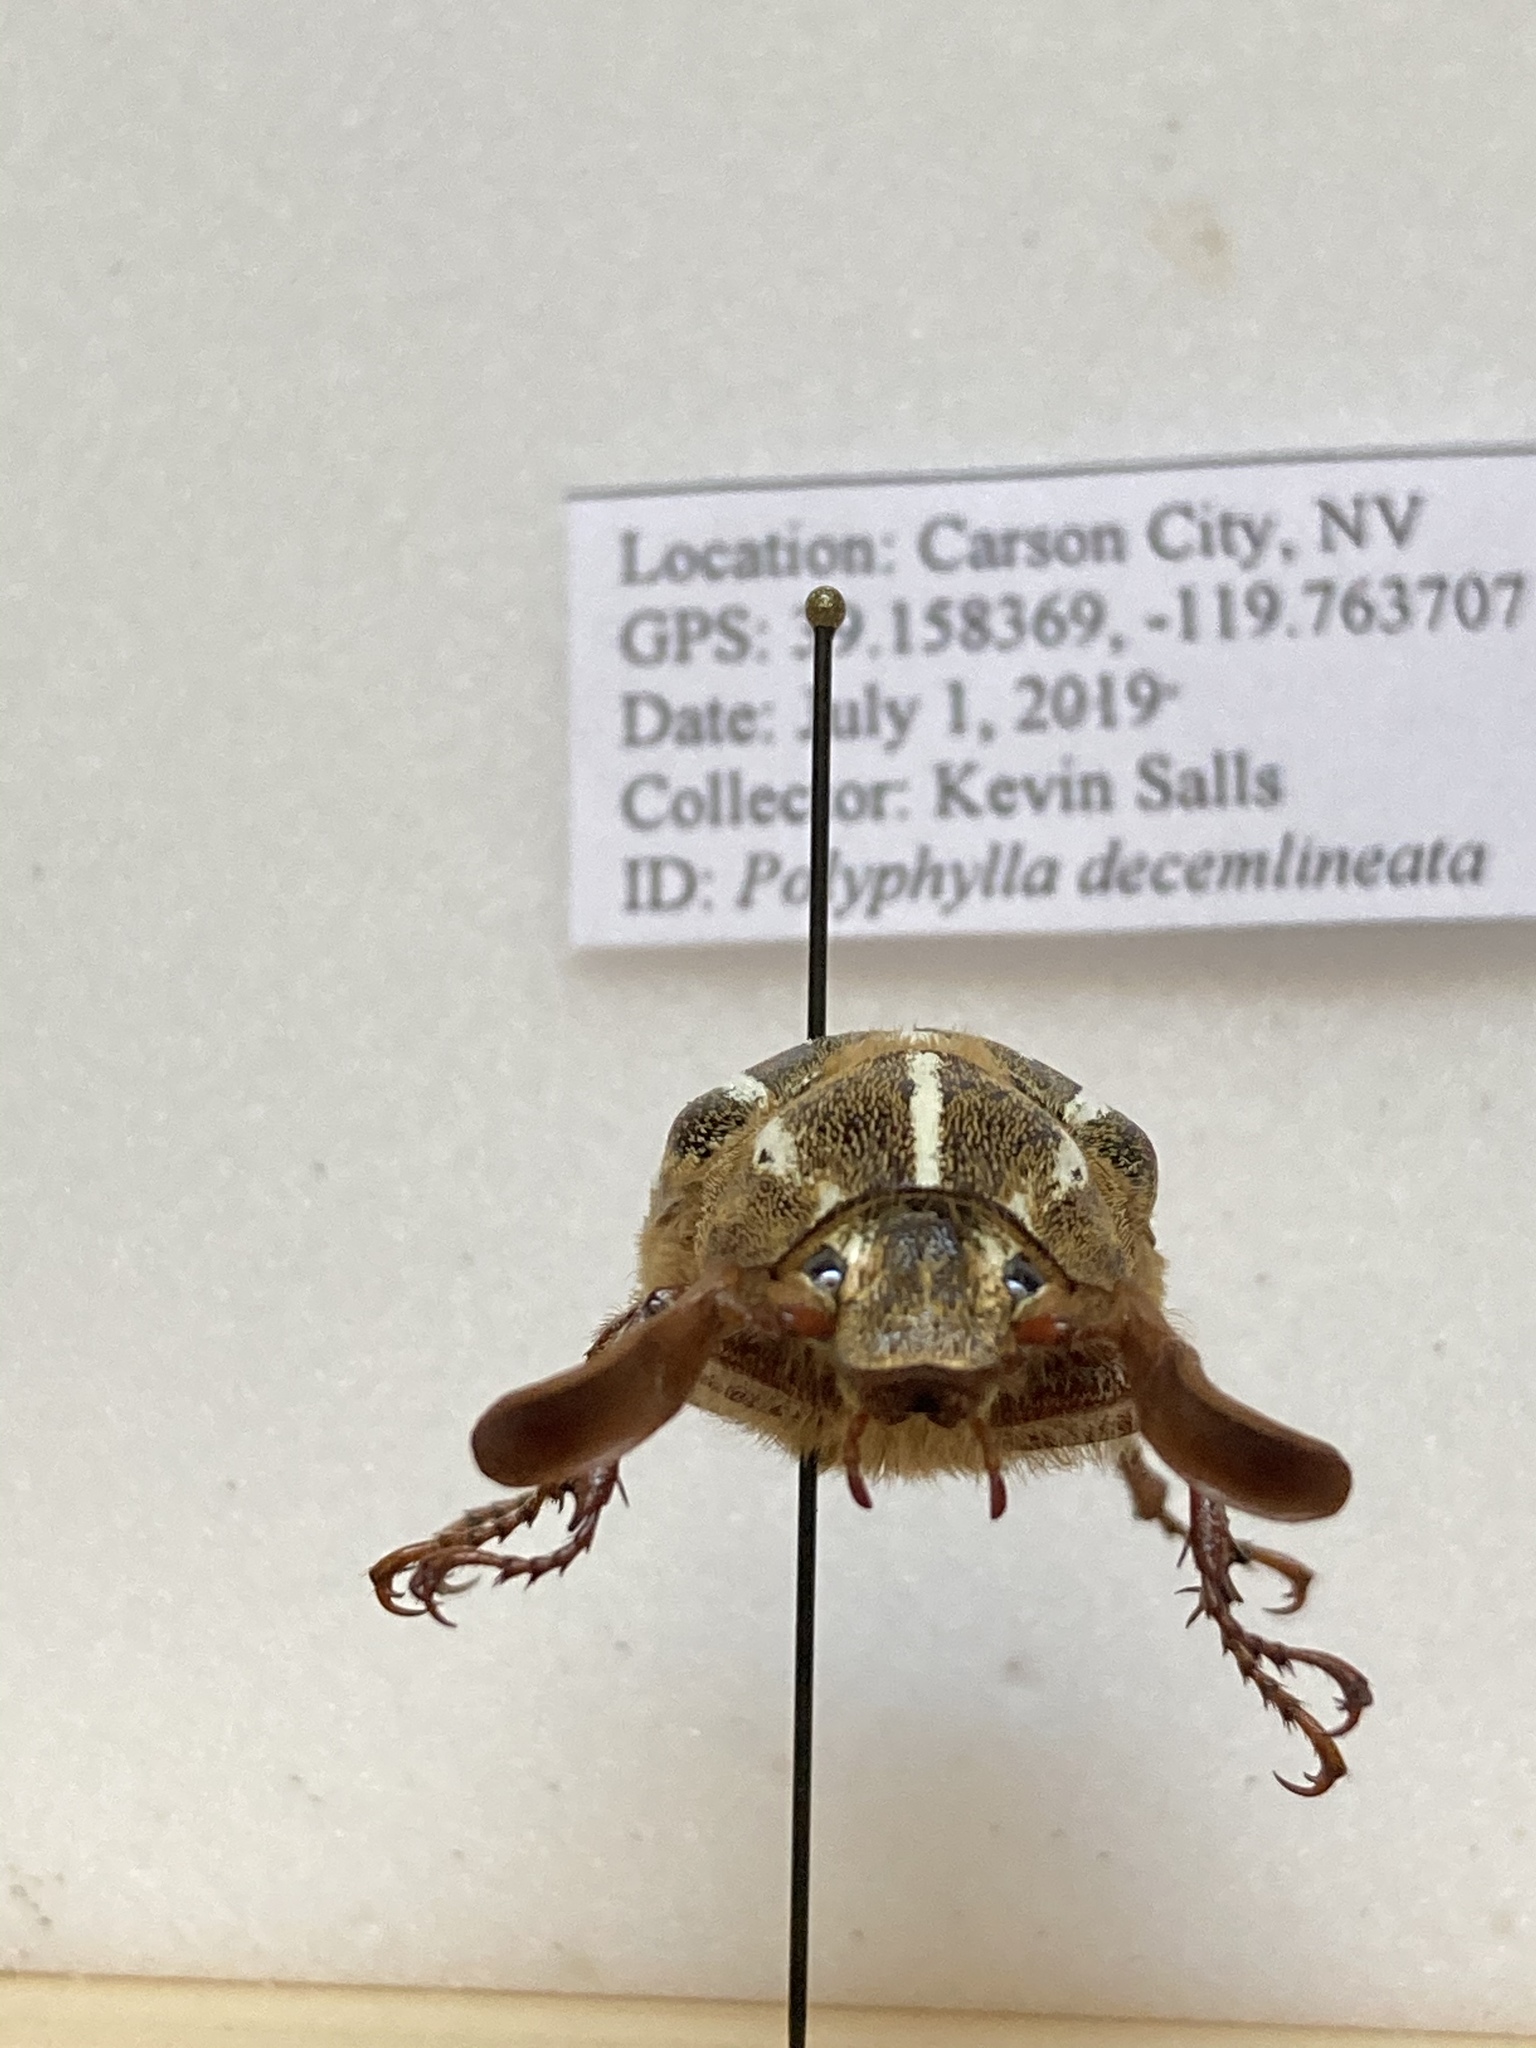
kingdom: Animalia
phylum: Arthropoda
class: Insecta
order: Coleoptera
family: Scarabaeidae
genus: Polyphylla
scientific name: Polyphylla decemlineata
